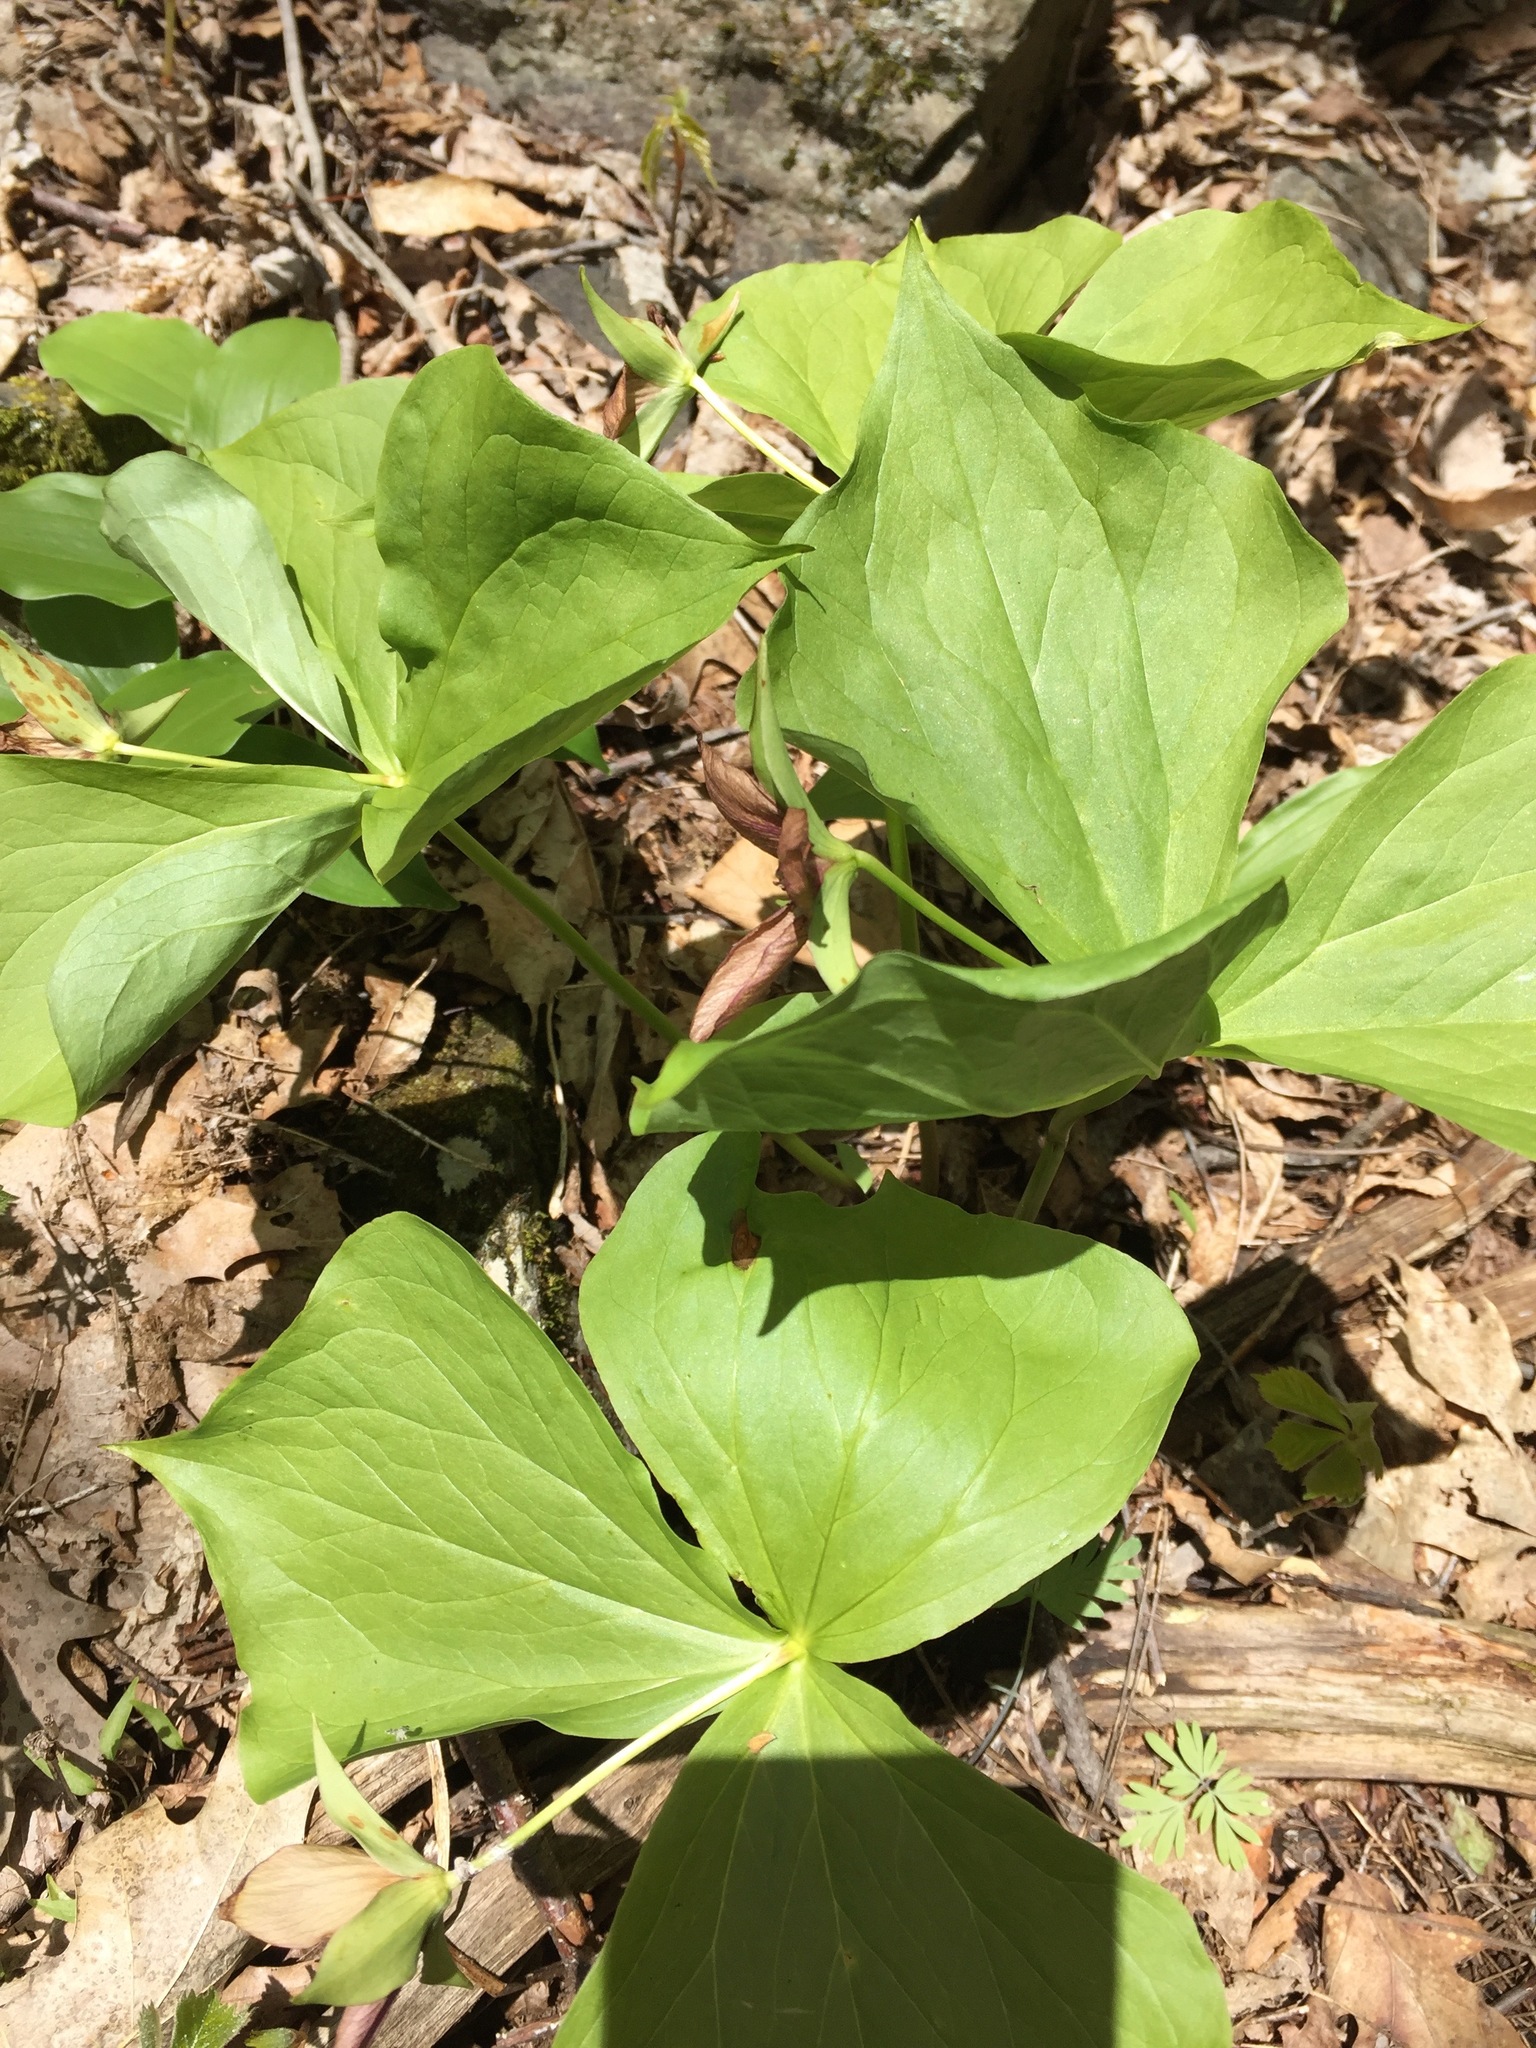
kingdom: Plantae
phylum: Tracheophyta
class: Liliopsida
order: Liliales
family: Melanthiaceae
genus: Trillium
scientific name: Trillium erectum
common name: Purple trillium
